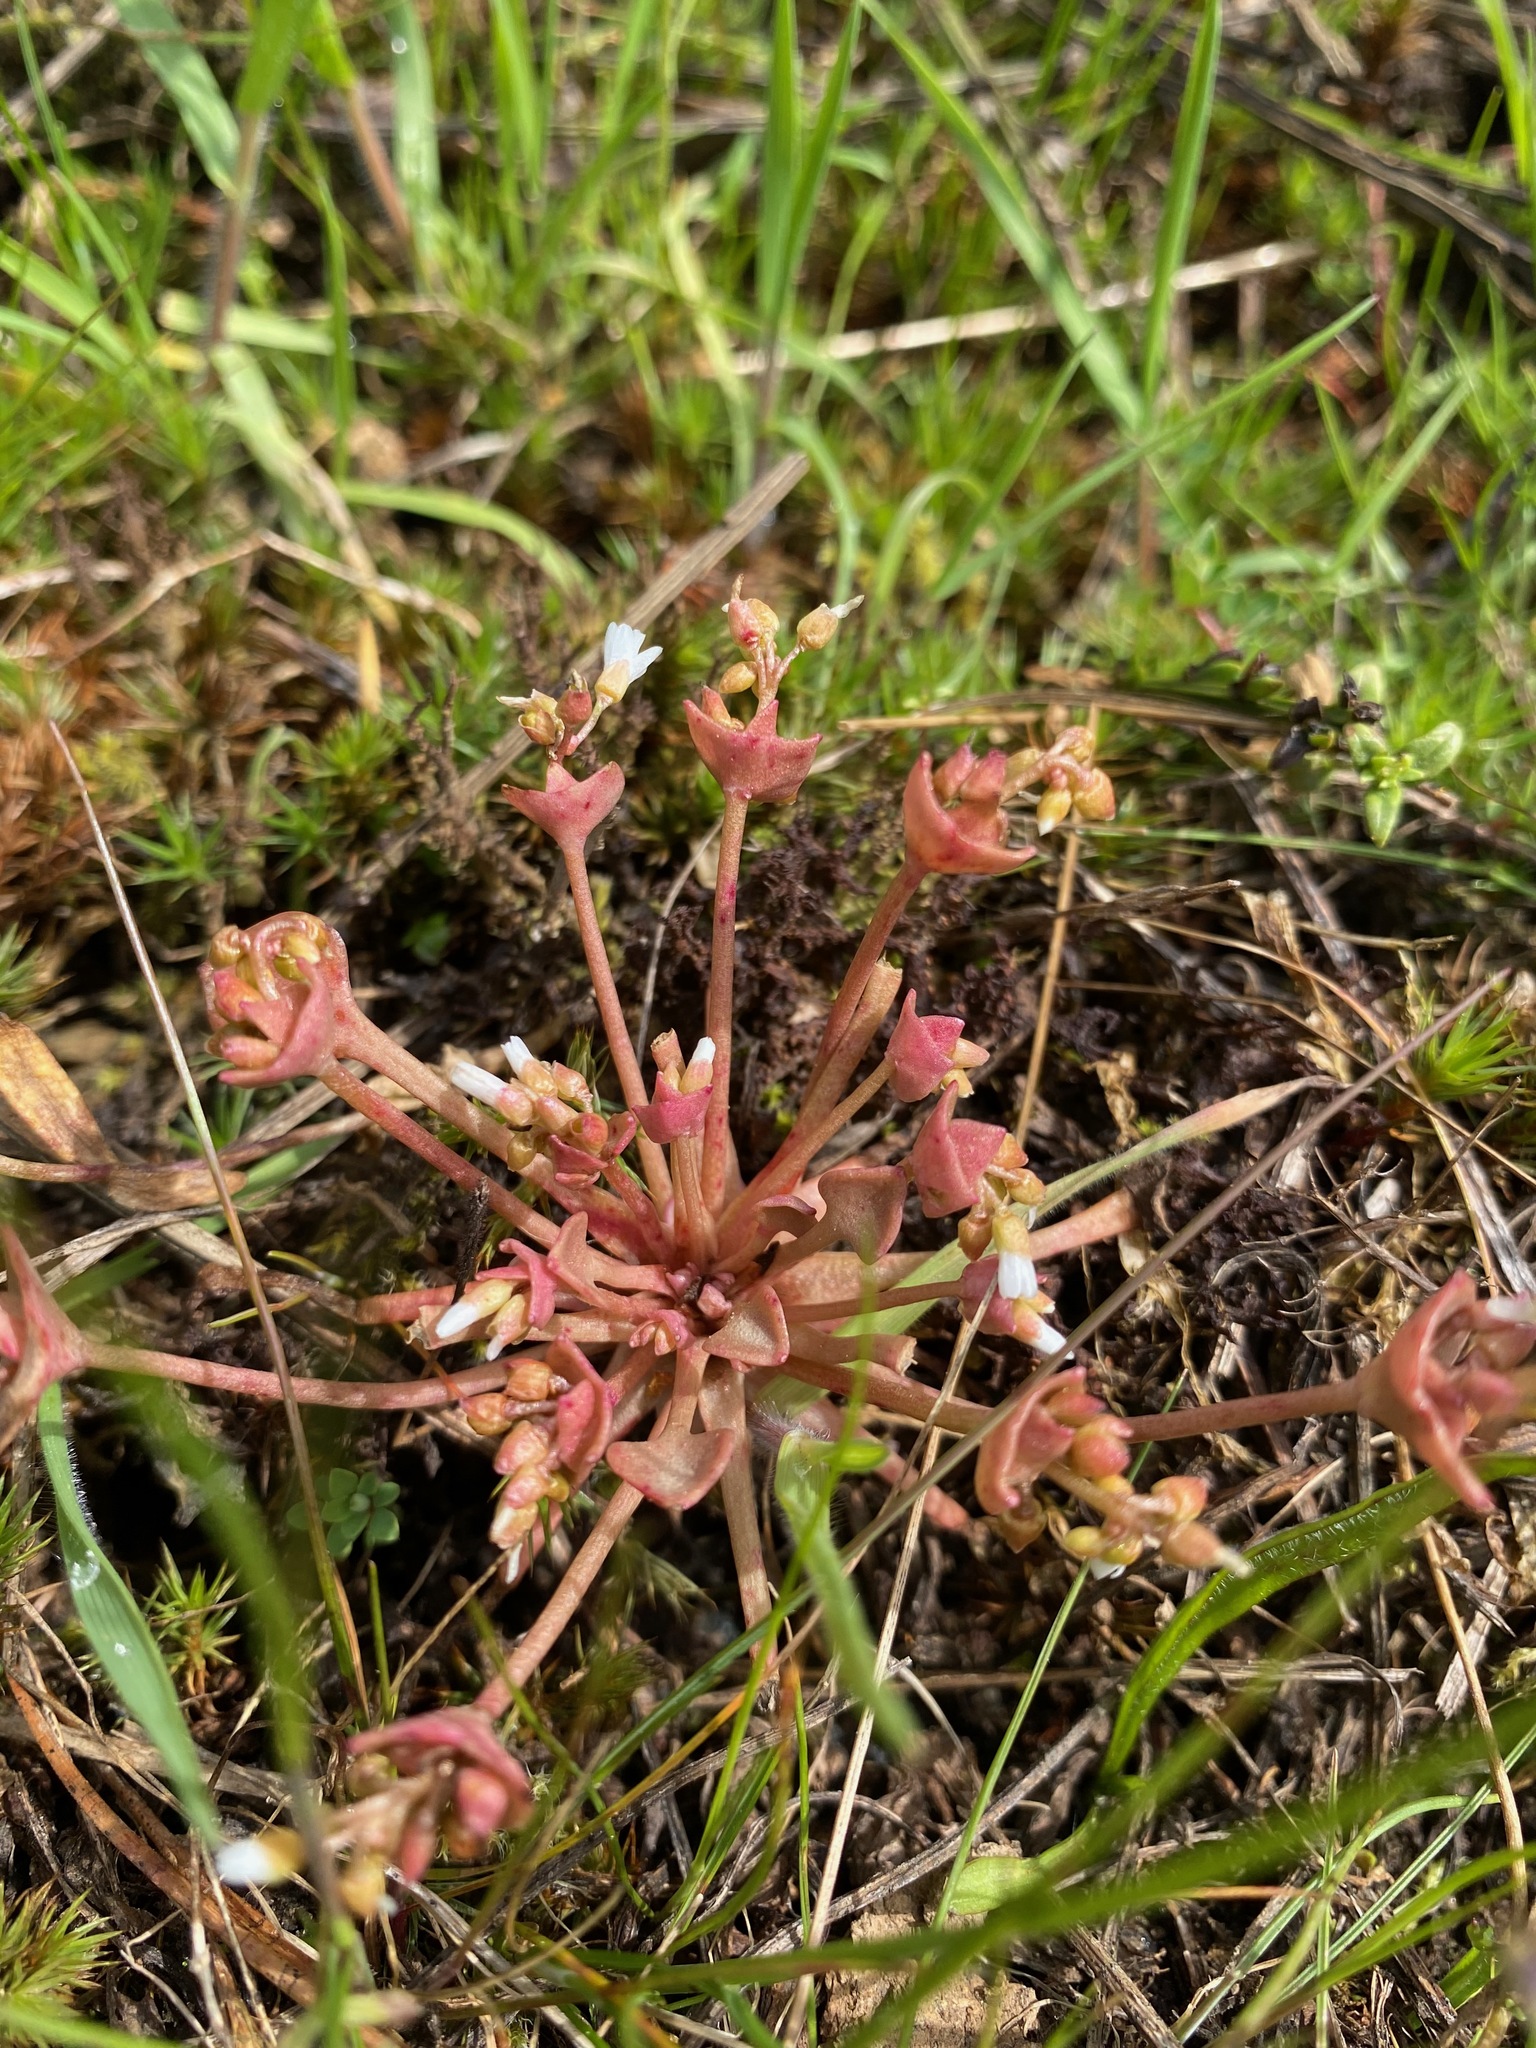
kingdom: Plantae
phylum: Tracheophyta
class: Magnoliopsida
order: Caryophyllales
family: Montiaceae
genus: Claytonia
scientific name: Claytonia rubra
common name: Erubescent miner's-lettuce
